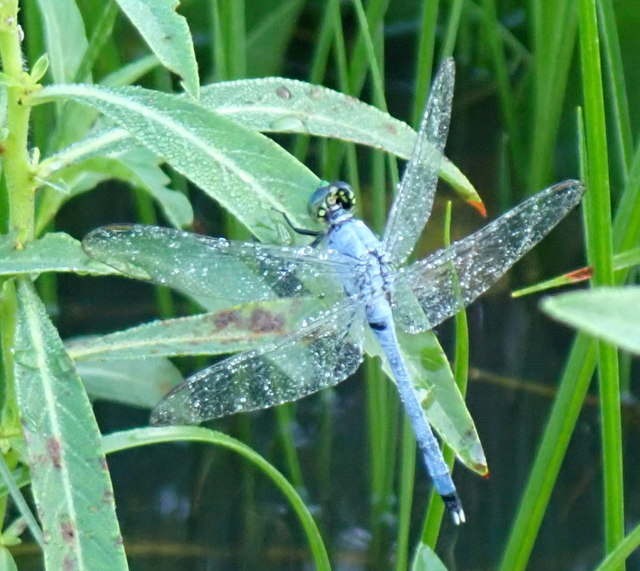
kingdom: Animalia
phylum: Arthropoda
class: Insecta
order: Odonata
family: Libellulidae
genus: Erythemis
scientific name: Erythemis simplicicollis
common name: Eastern pondhawk
